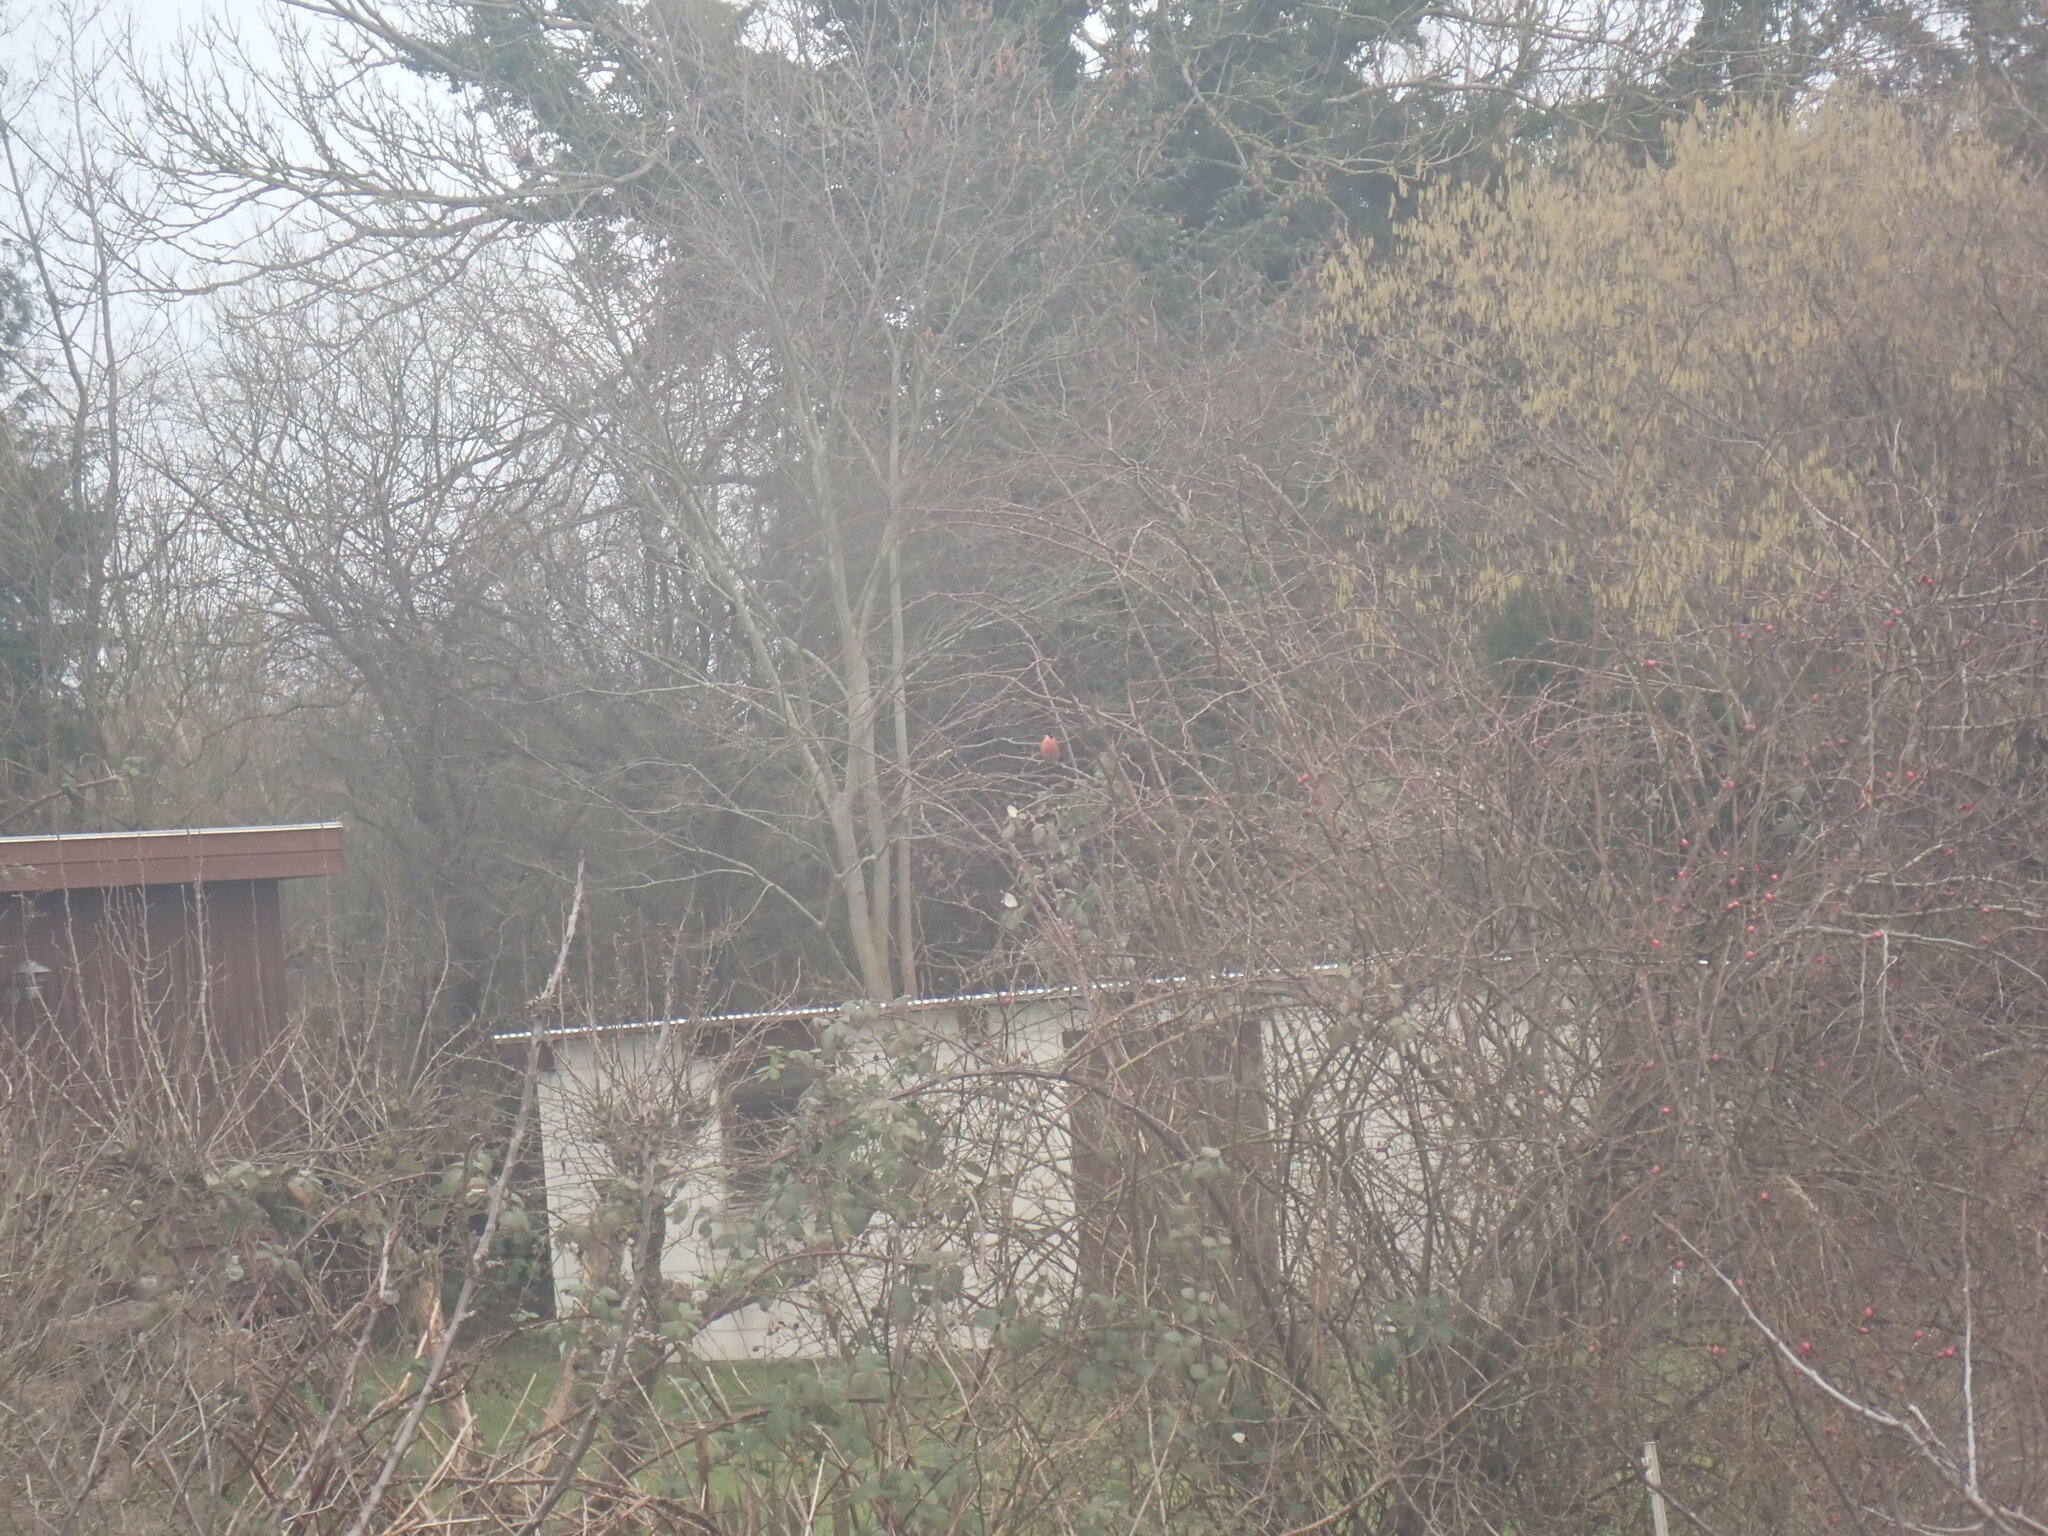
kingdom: Animalia
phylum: Chordata
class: Aves
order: Passeriformes
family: Fringillidae
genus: Pyrrhula
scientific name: Pyrrhula pyrrhula
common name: Eurasian bullfinch
